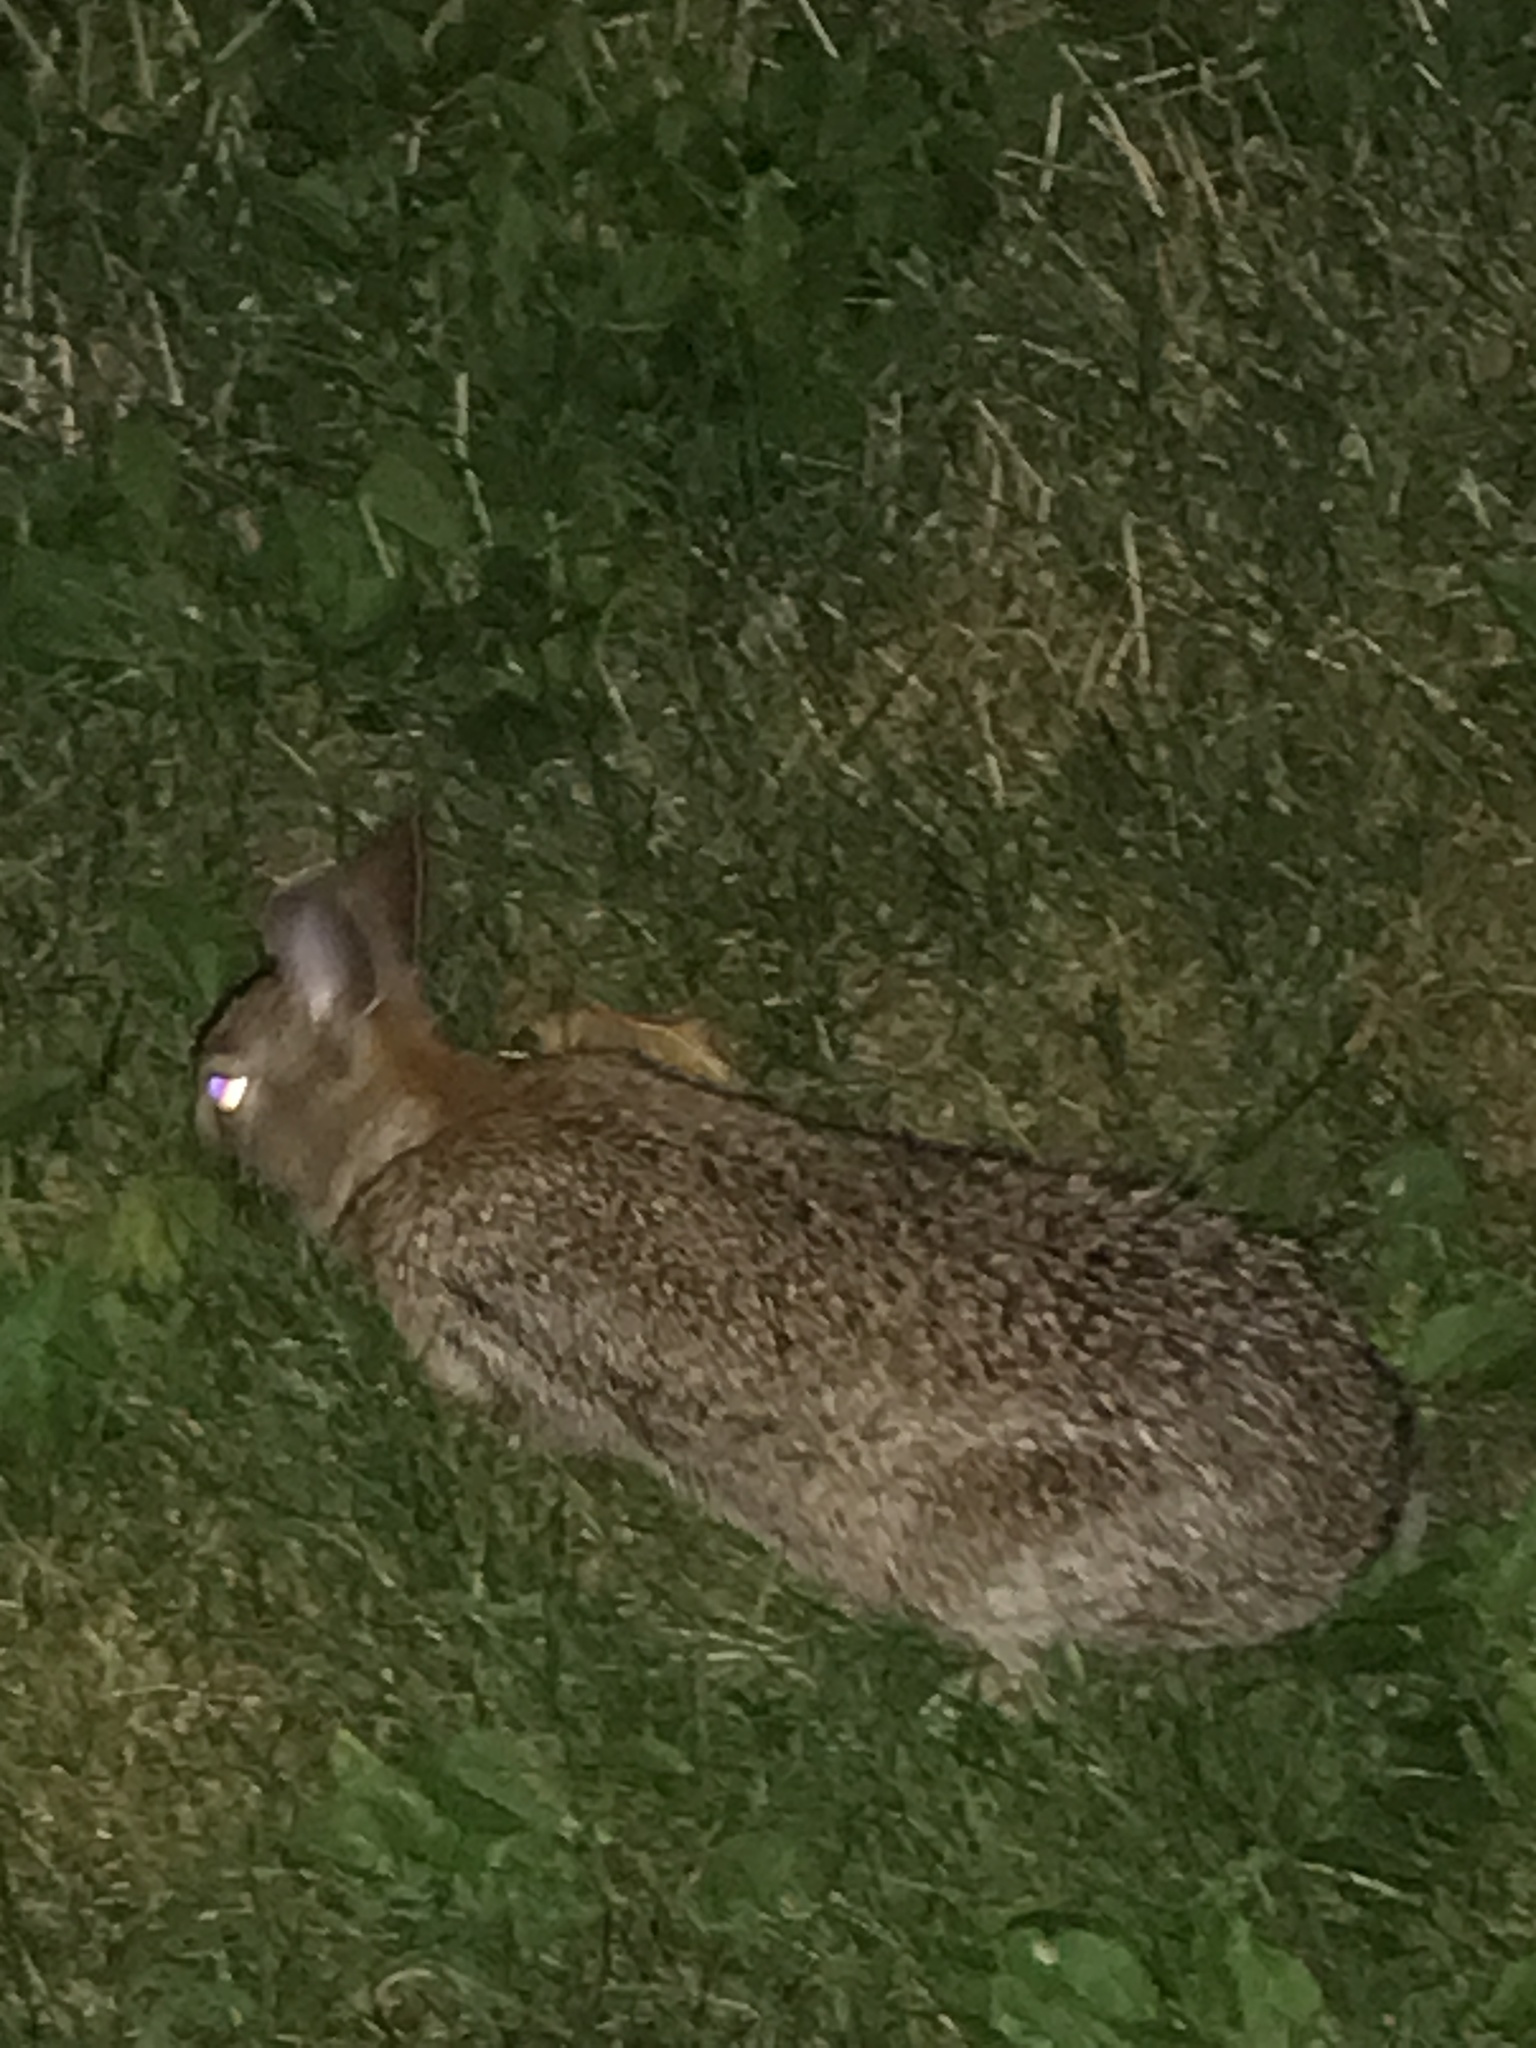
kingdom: Animalia
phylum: Chordata
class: Mammalia
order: Lagomorpha
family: Leporidae
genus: Sylvilagus
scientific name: Sylvilagus floridanus
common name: Eastern cottontail
